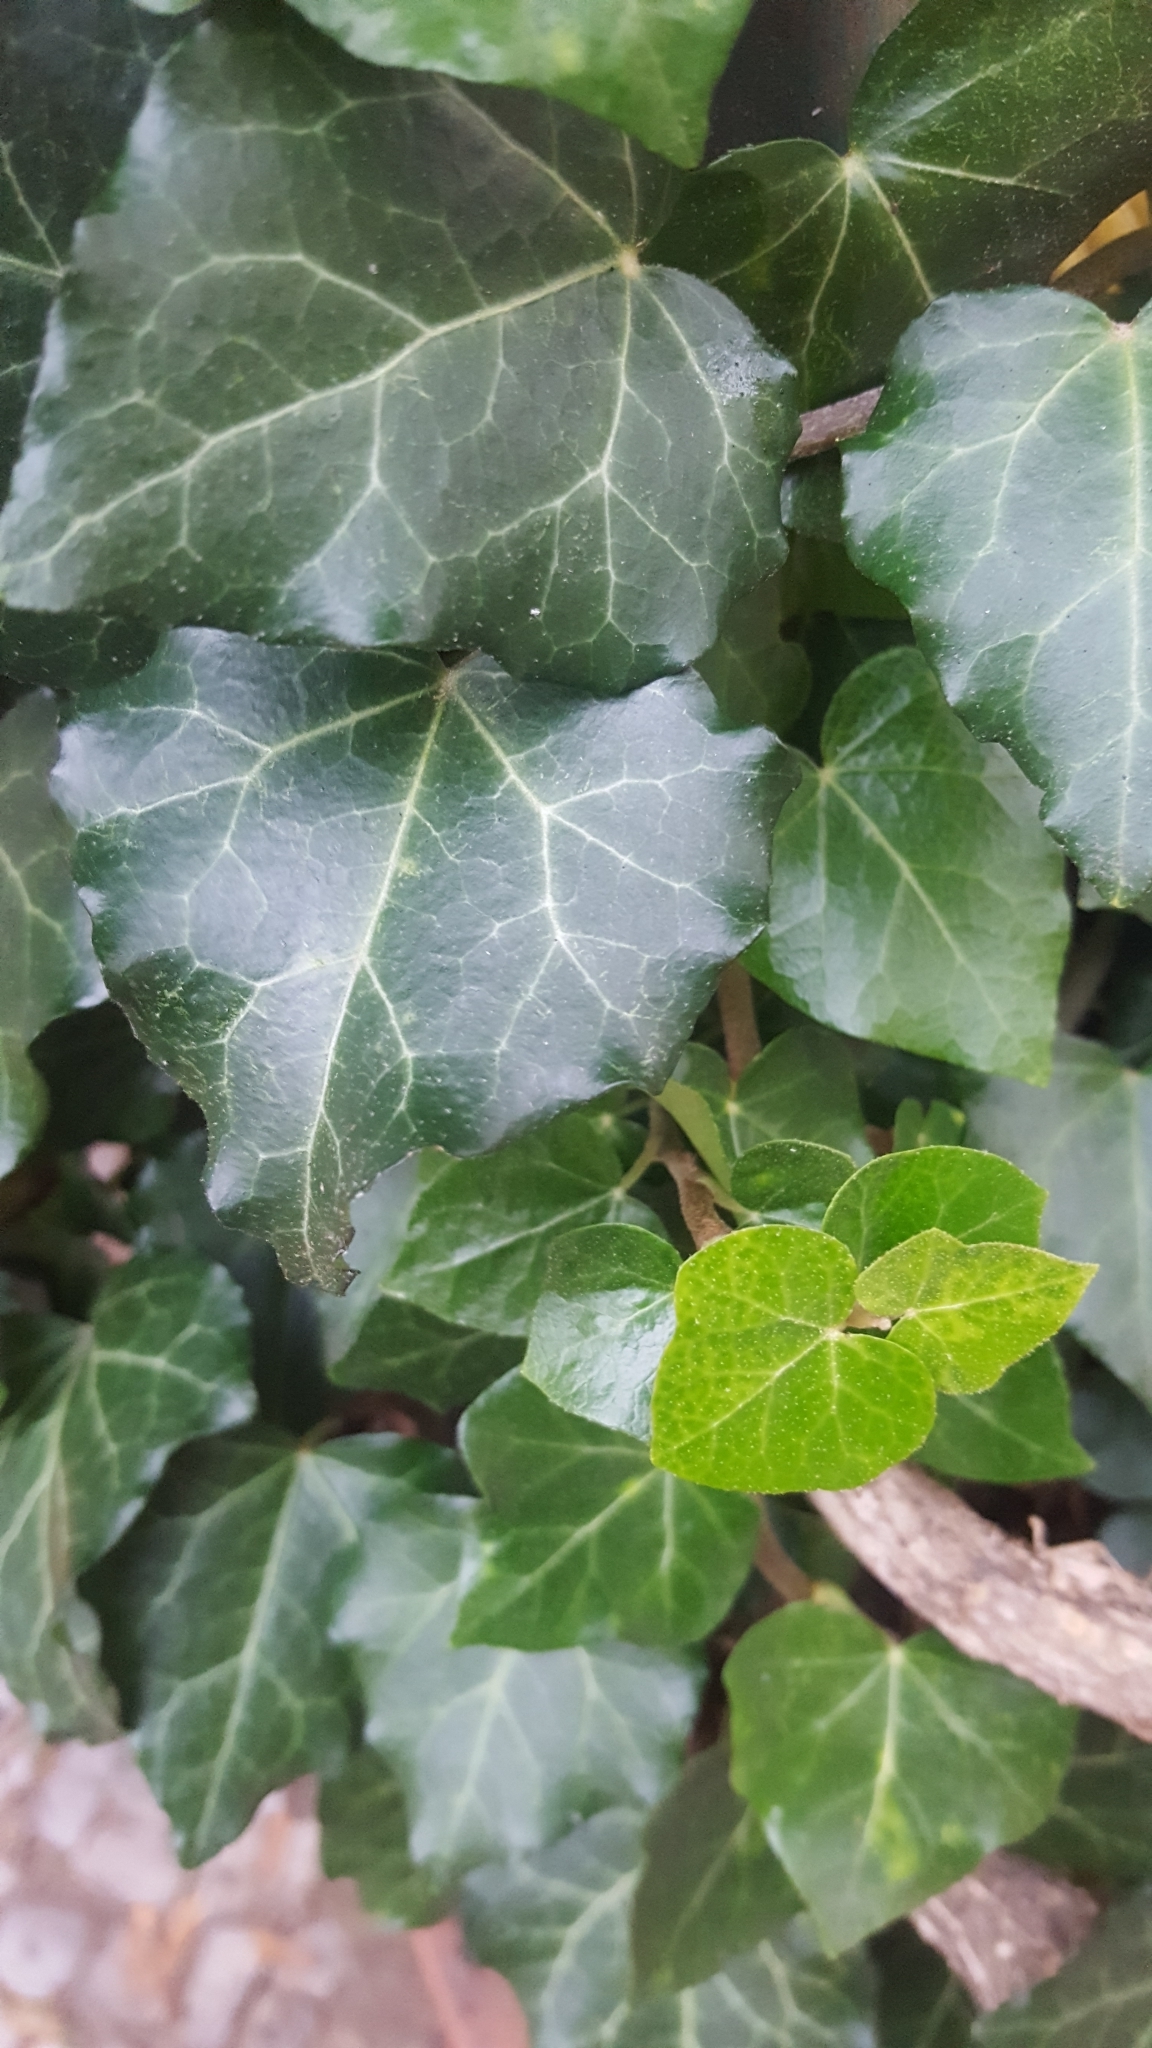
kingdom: Plantae
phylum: Tracheophyta
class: Magnoliopsida
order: Apiales
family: Araliaceae
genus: Hedera
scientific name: Hedera helix
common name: Ivy
